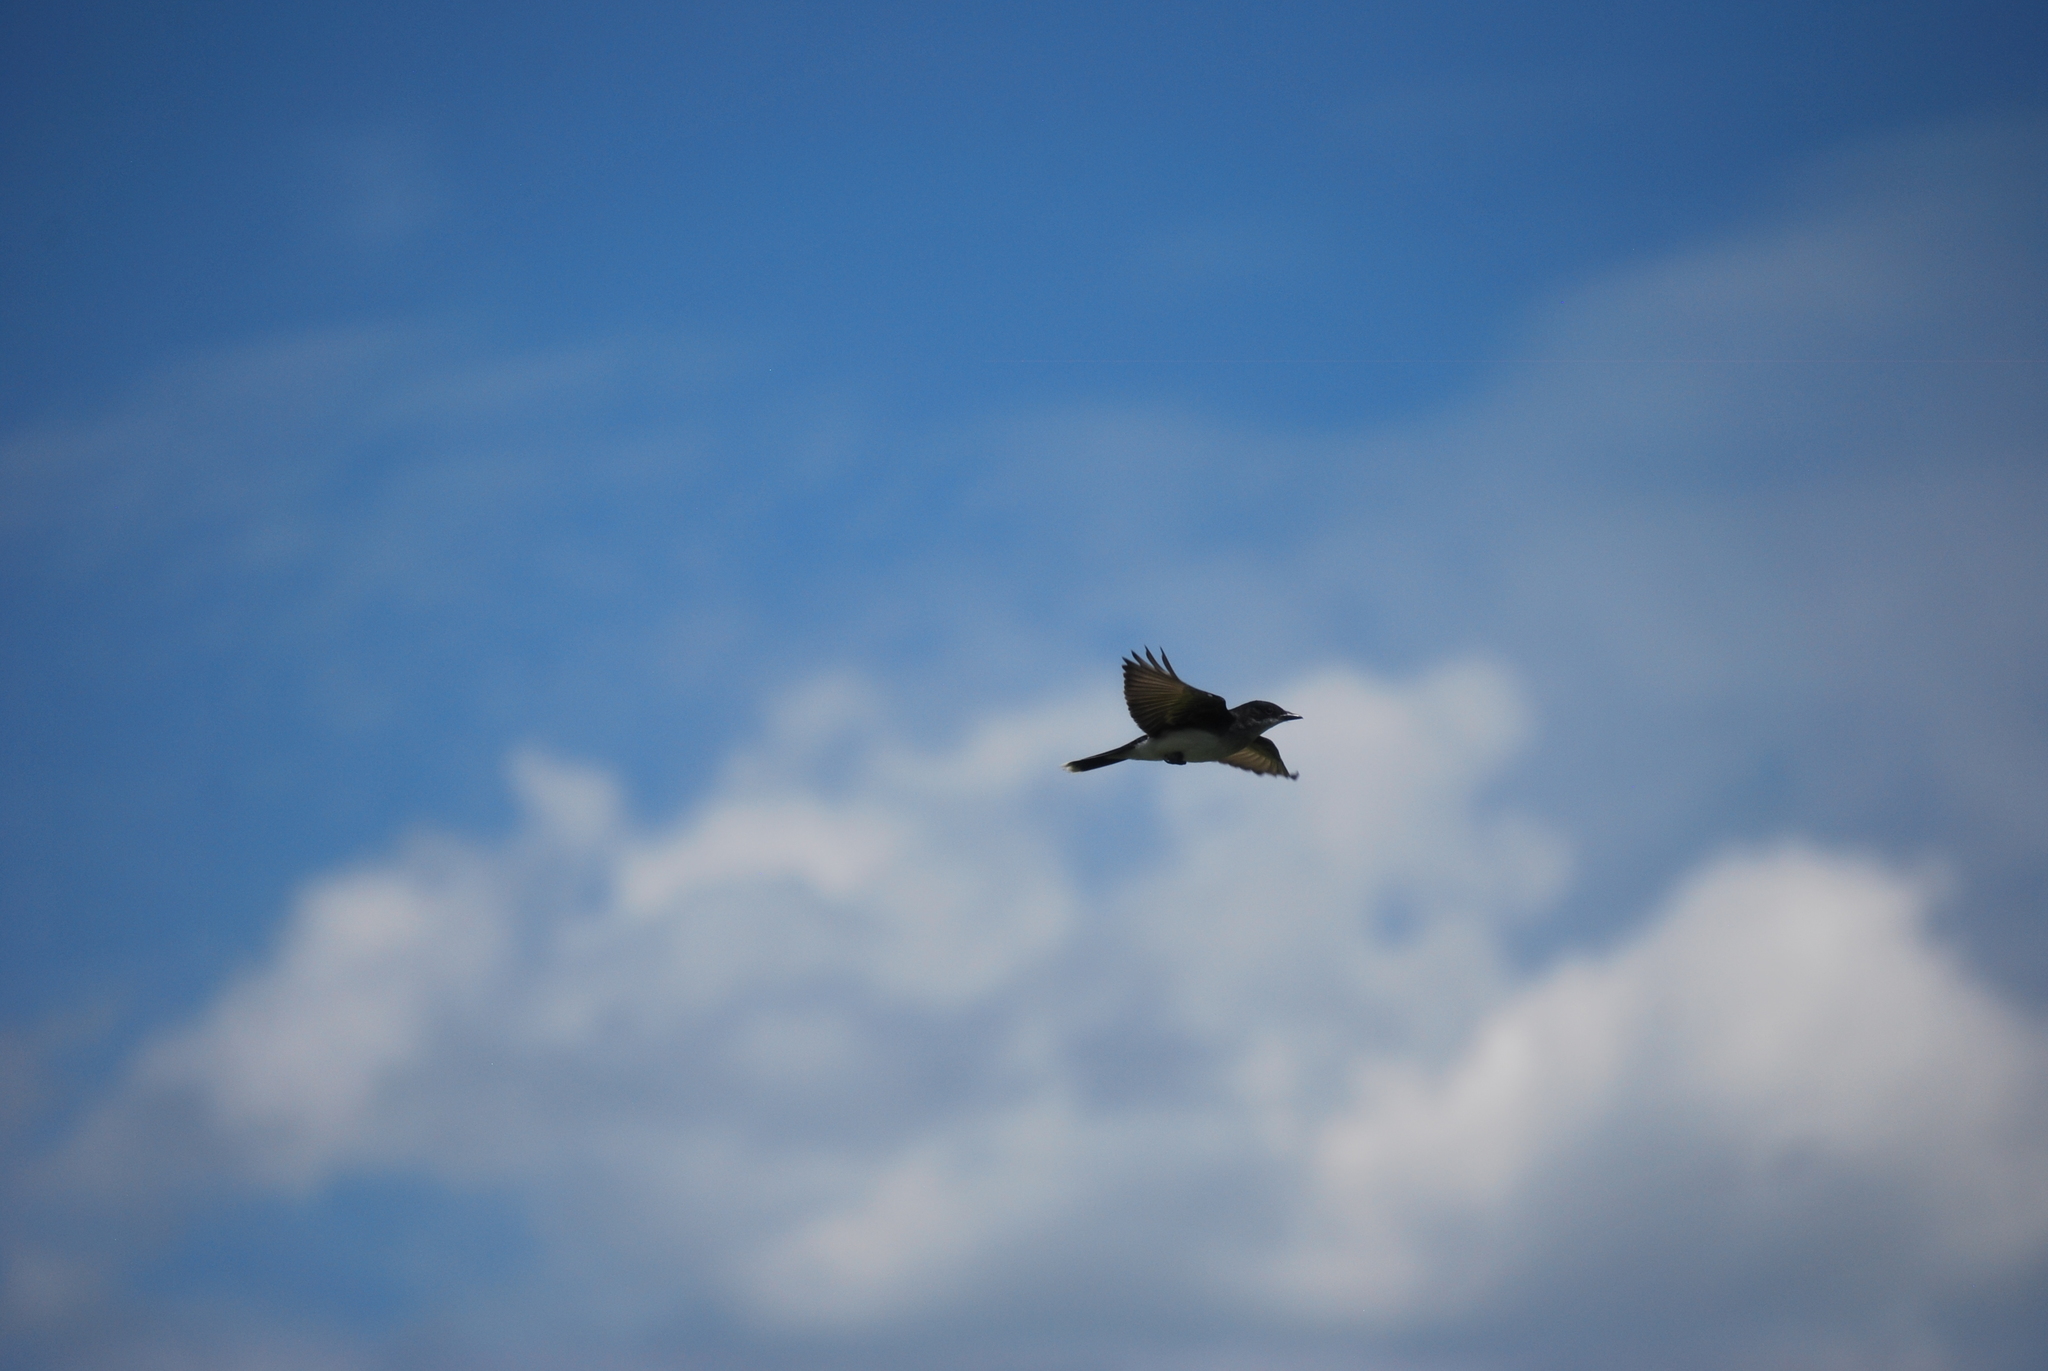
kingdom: Animalia
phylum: Chordata
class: Aves
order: Passeriformes
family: Tyrannidae
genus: Tyrannus
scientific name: Tyrannus tyrannus
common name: Eastern kingbird
